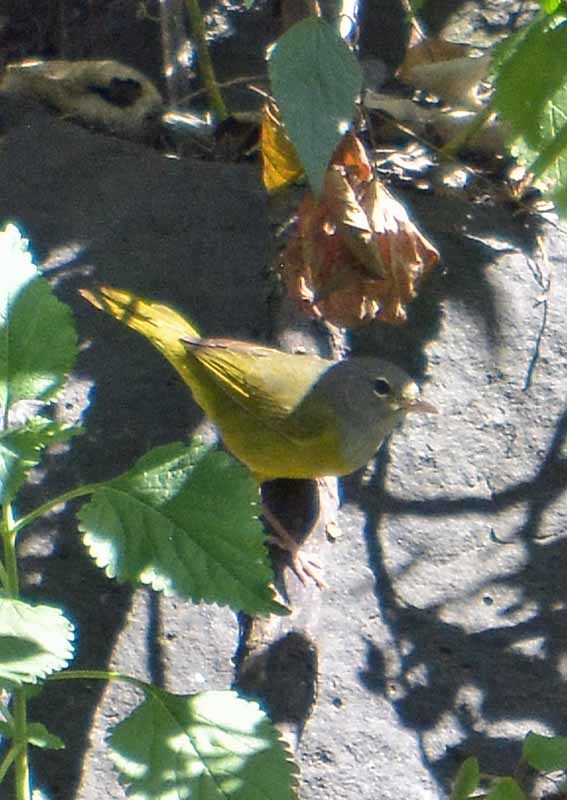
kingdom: Animalia
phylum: Chordata
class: Aves
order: Passeriformes
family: Parulidae
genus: Geothlypis
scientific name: Geothlypis tolmiei
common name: Macgillivray's warbler
